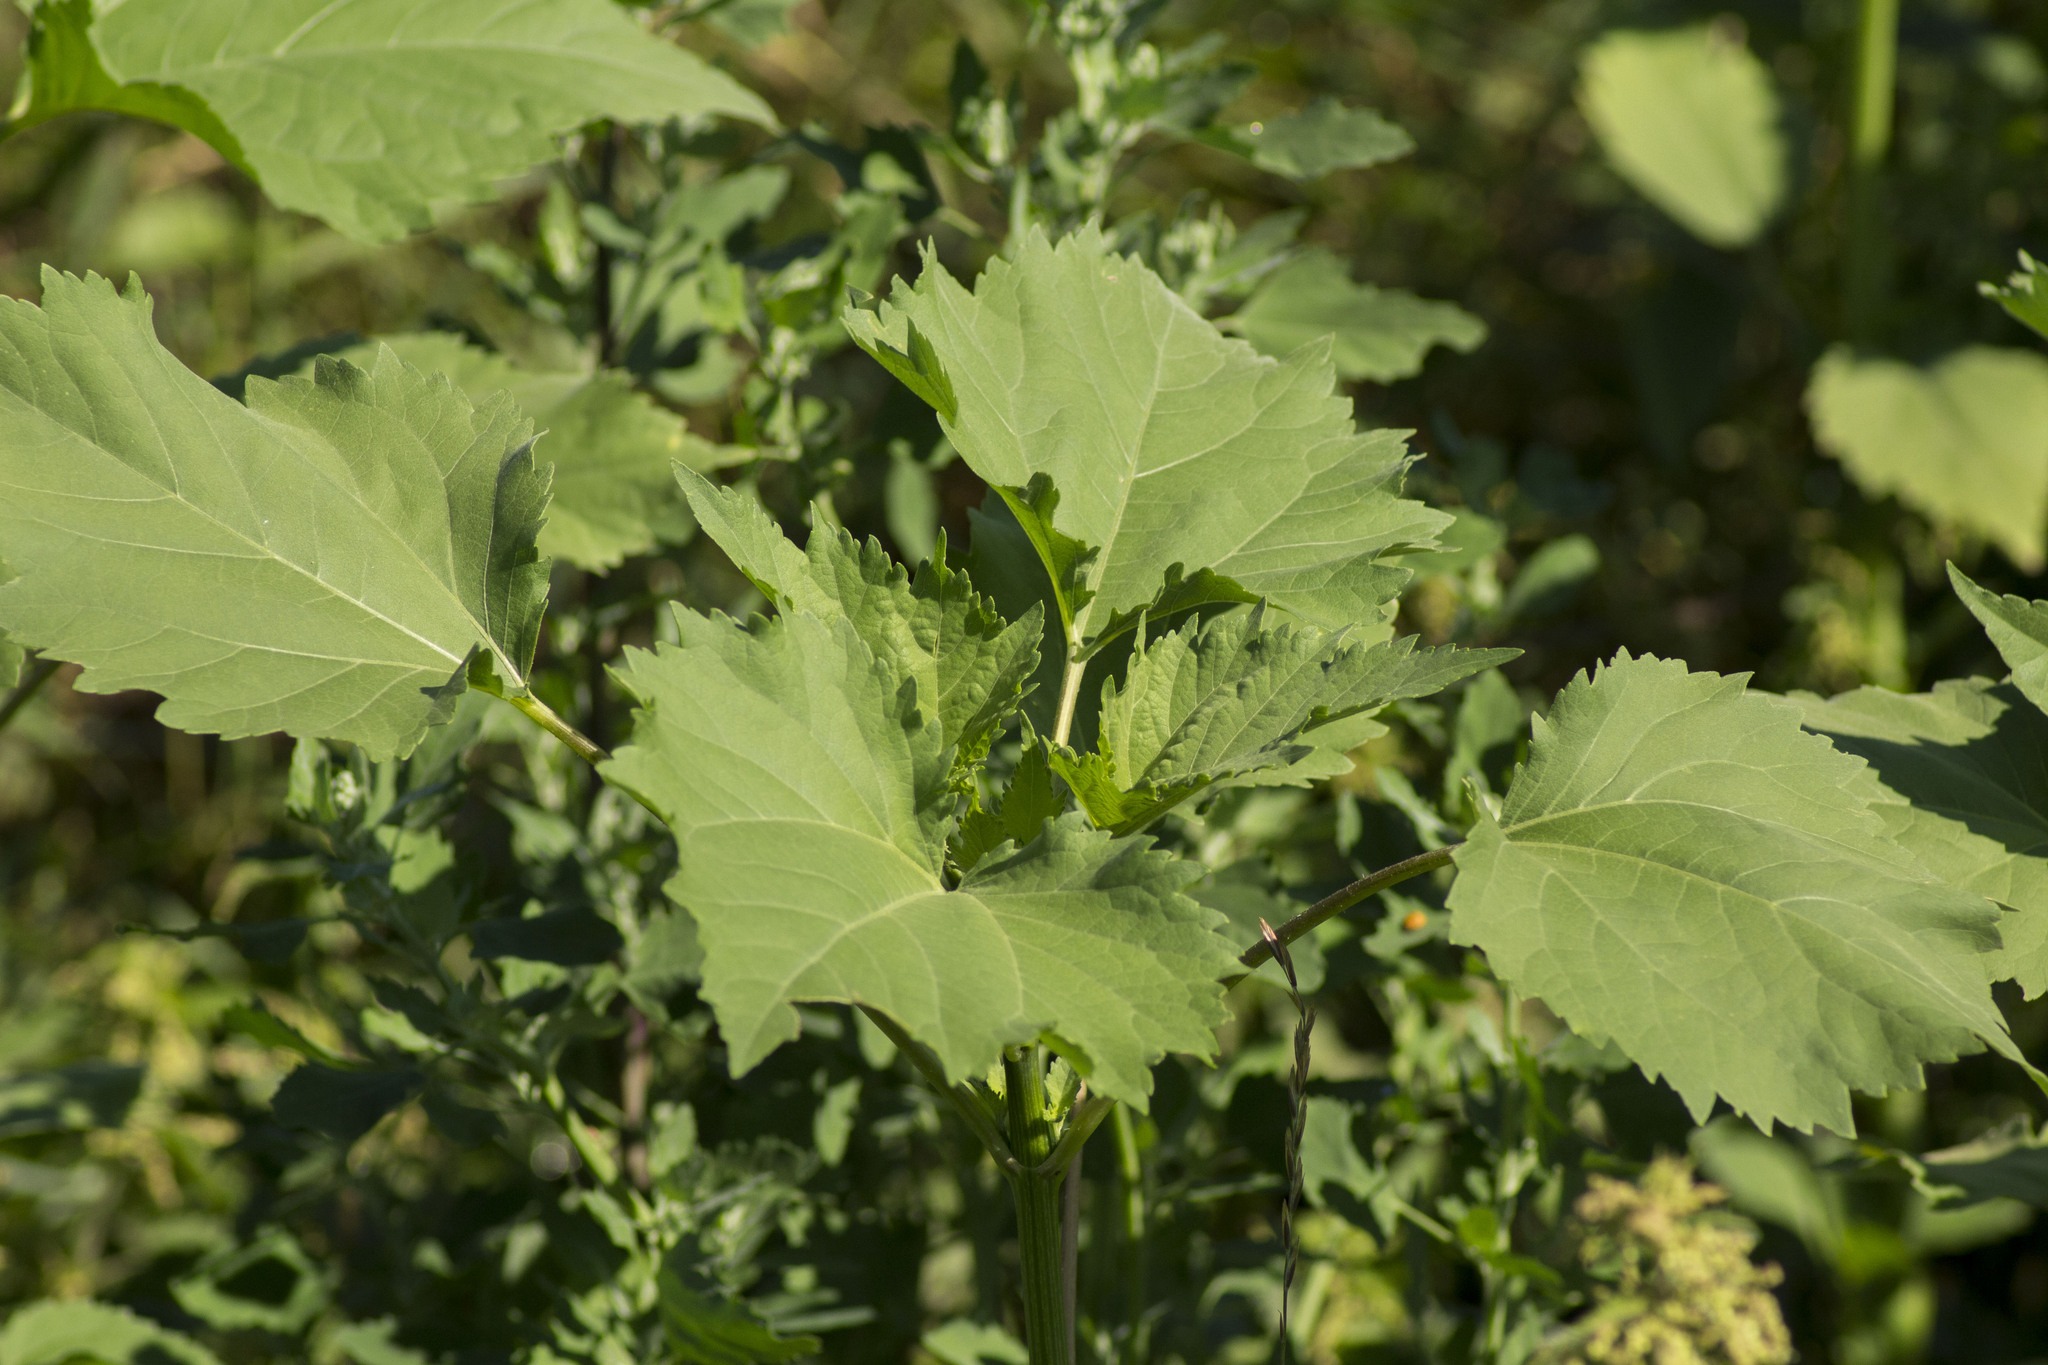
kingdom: Plantae
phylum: Tracheophyta
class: Magnoliopsida
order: Asterales
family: Asteraceae
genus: Cyclachaena
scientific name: Cyclachaena xanthiifolia
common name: Giant sumpweed
